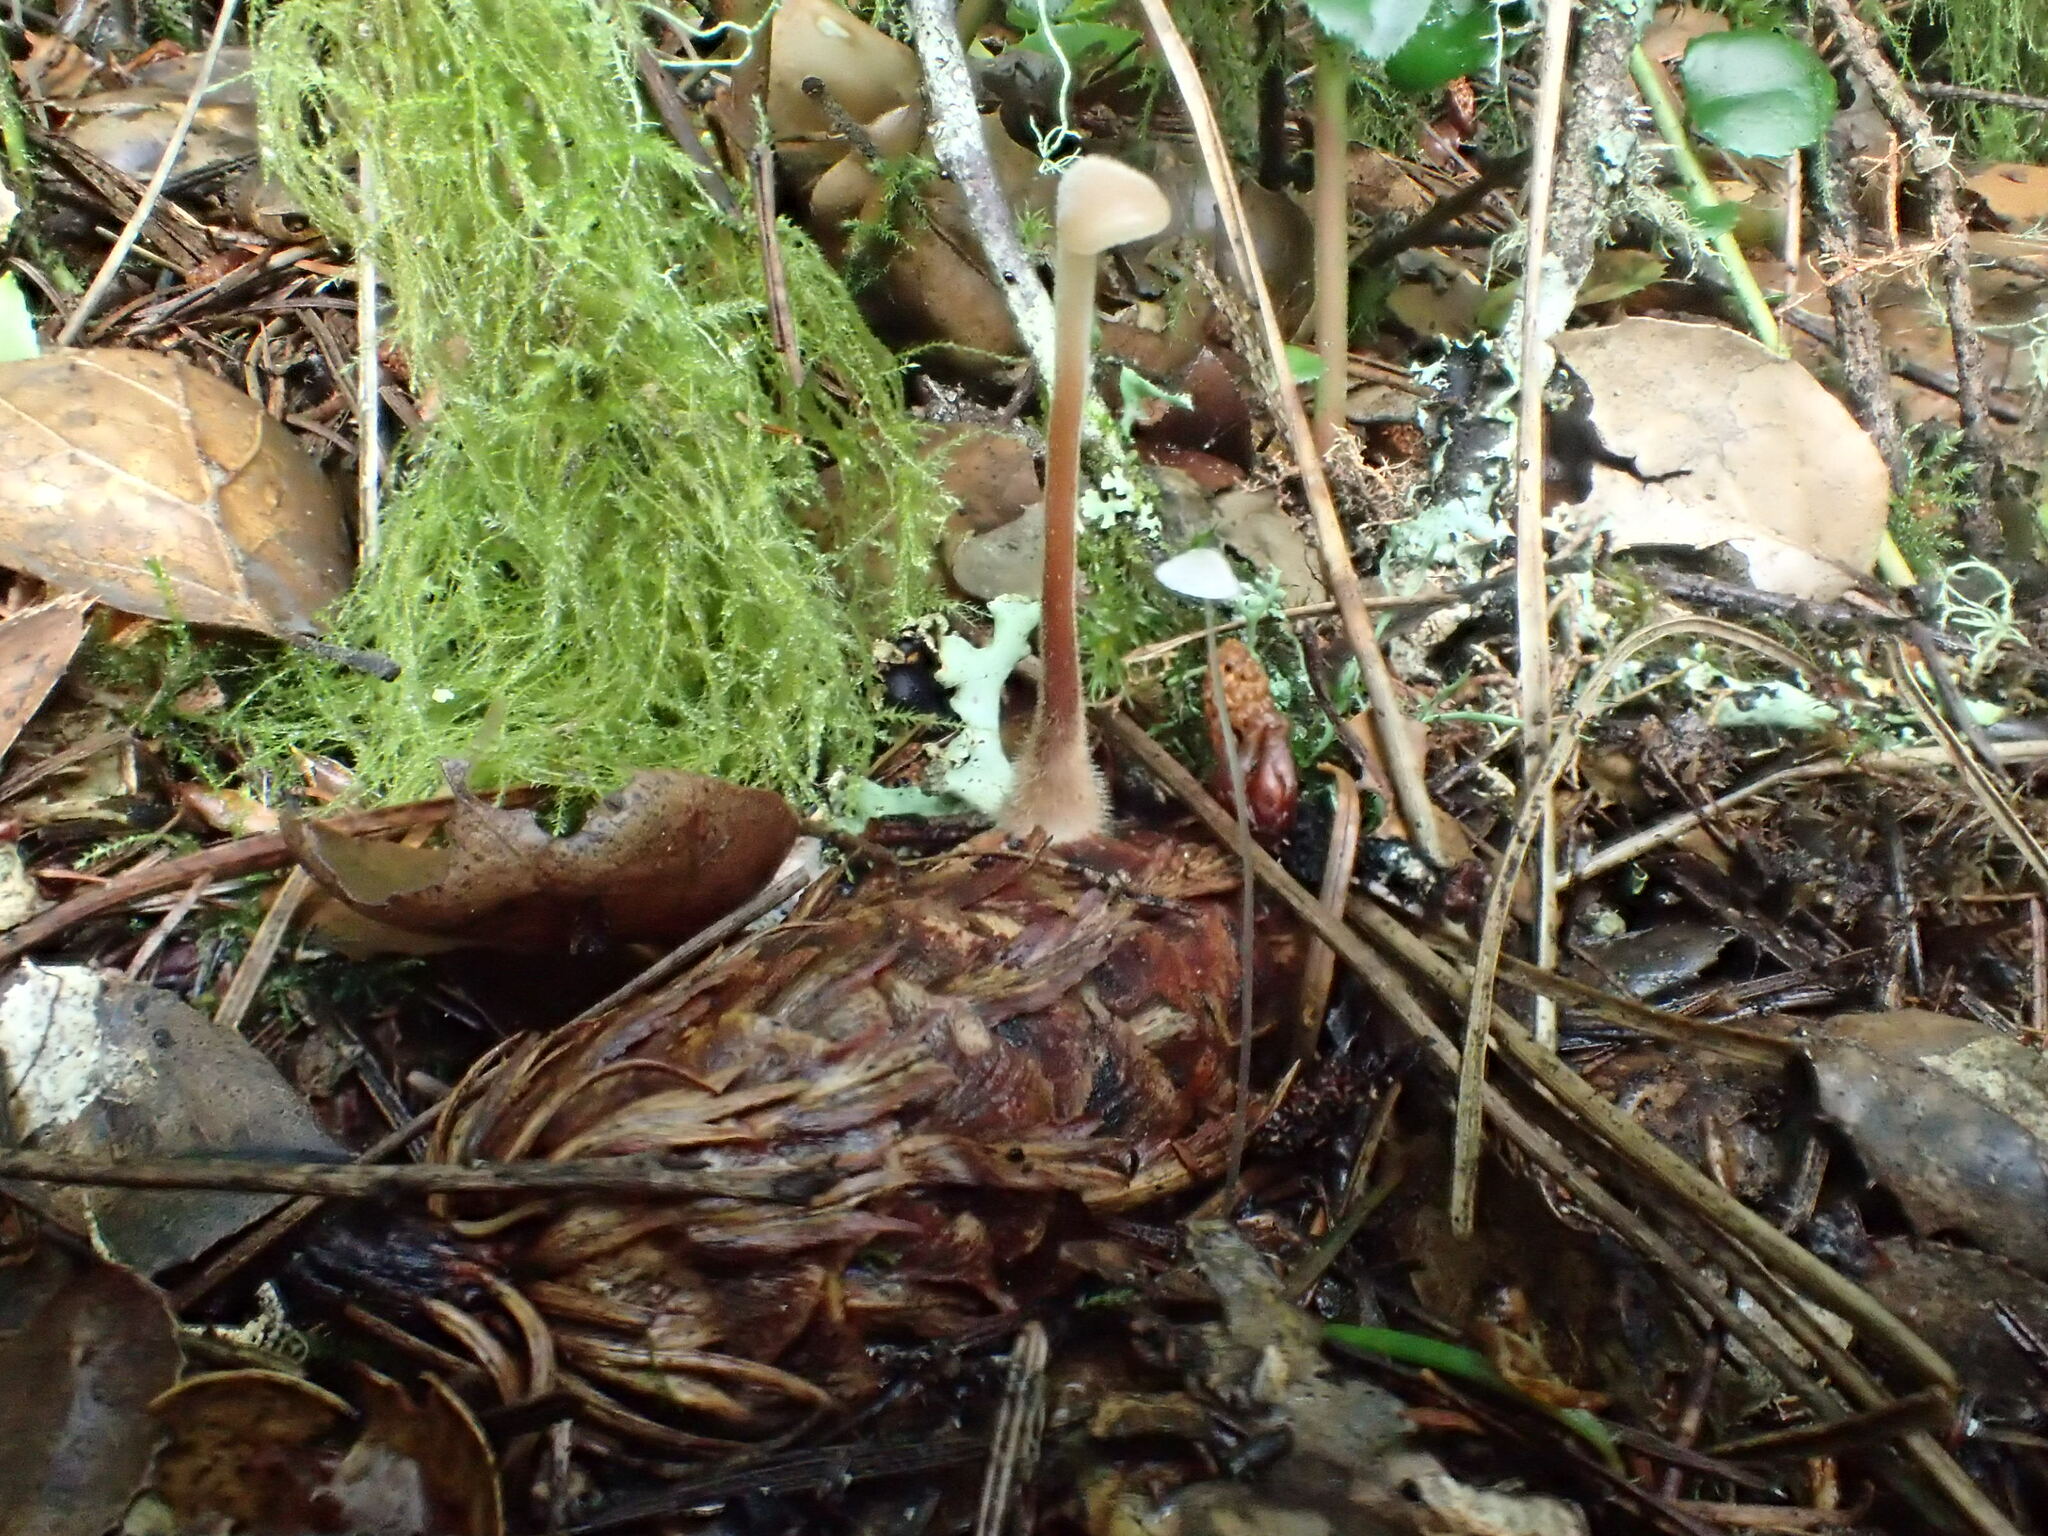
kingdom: Fungi
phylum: Basidiomycota
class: Agaricomycetes
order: Russulales
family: Auriscalpiaceae
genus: Auriscalpium
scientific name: Auriscalpium vulgare
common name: Earpick fungus
